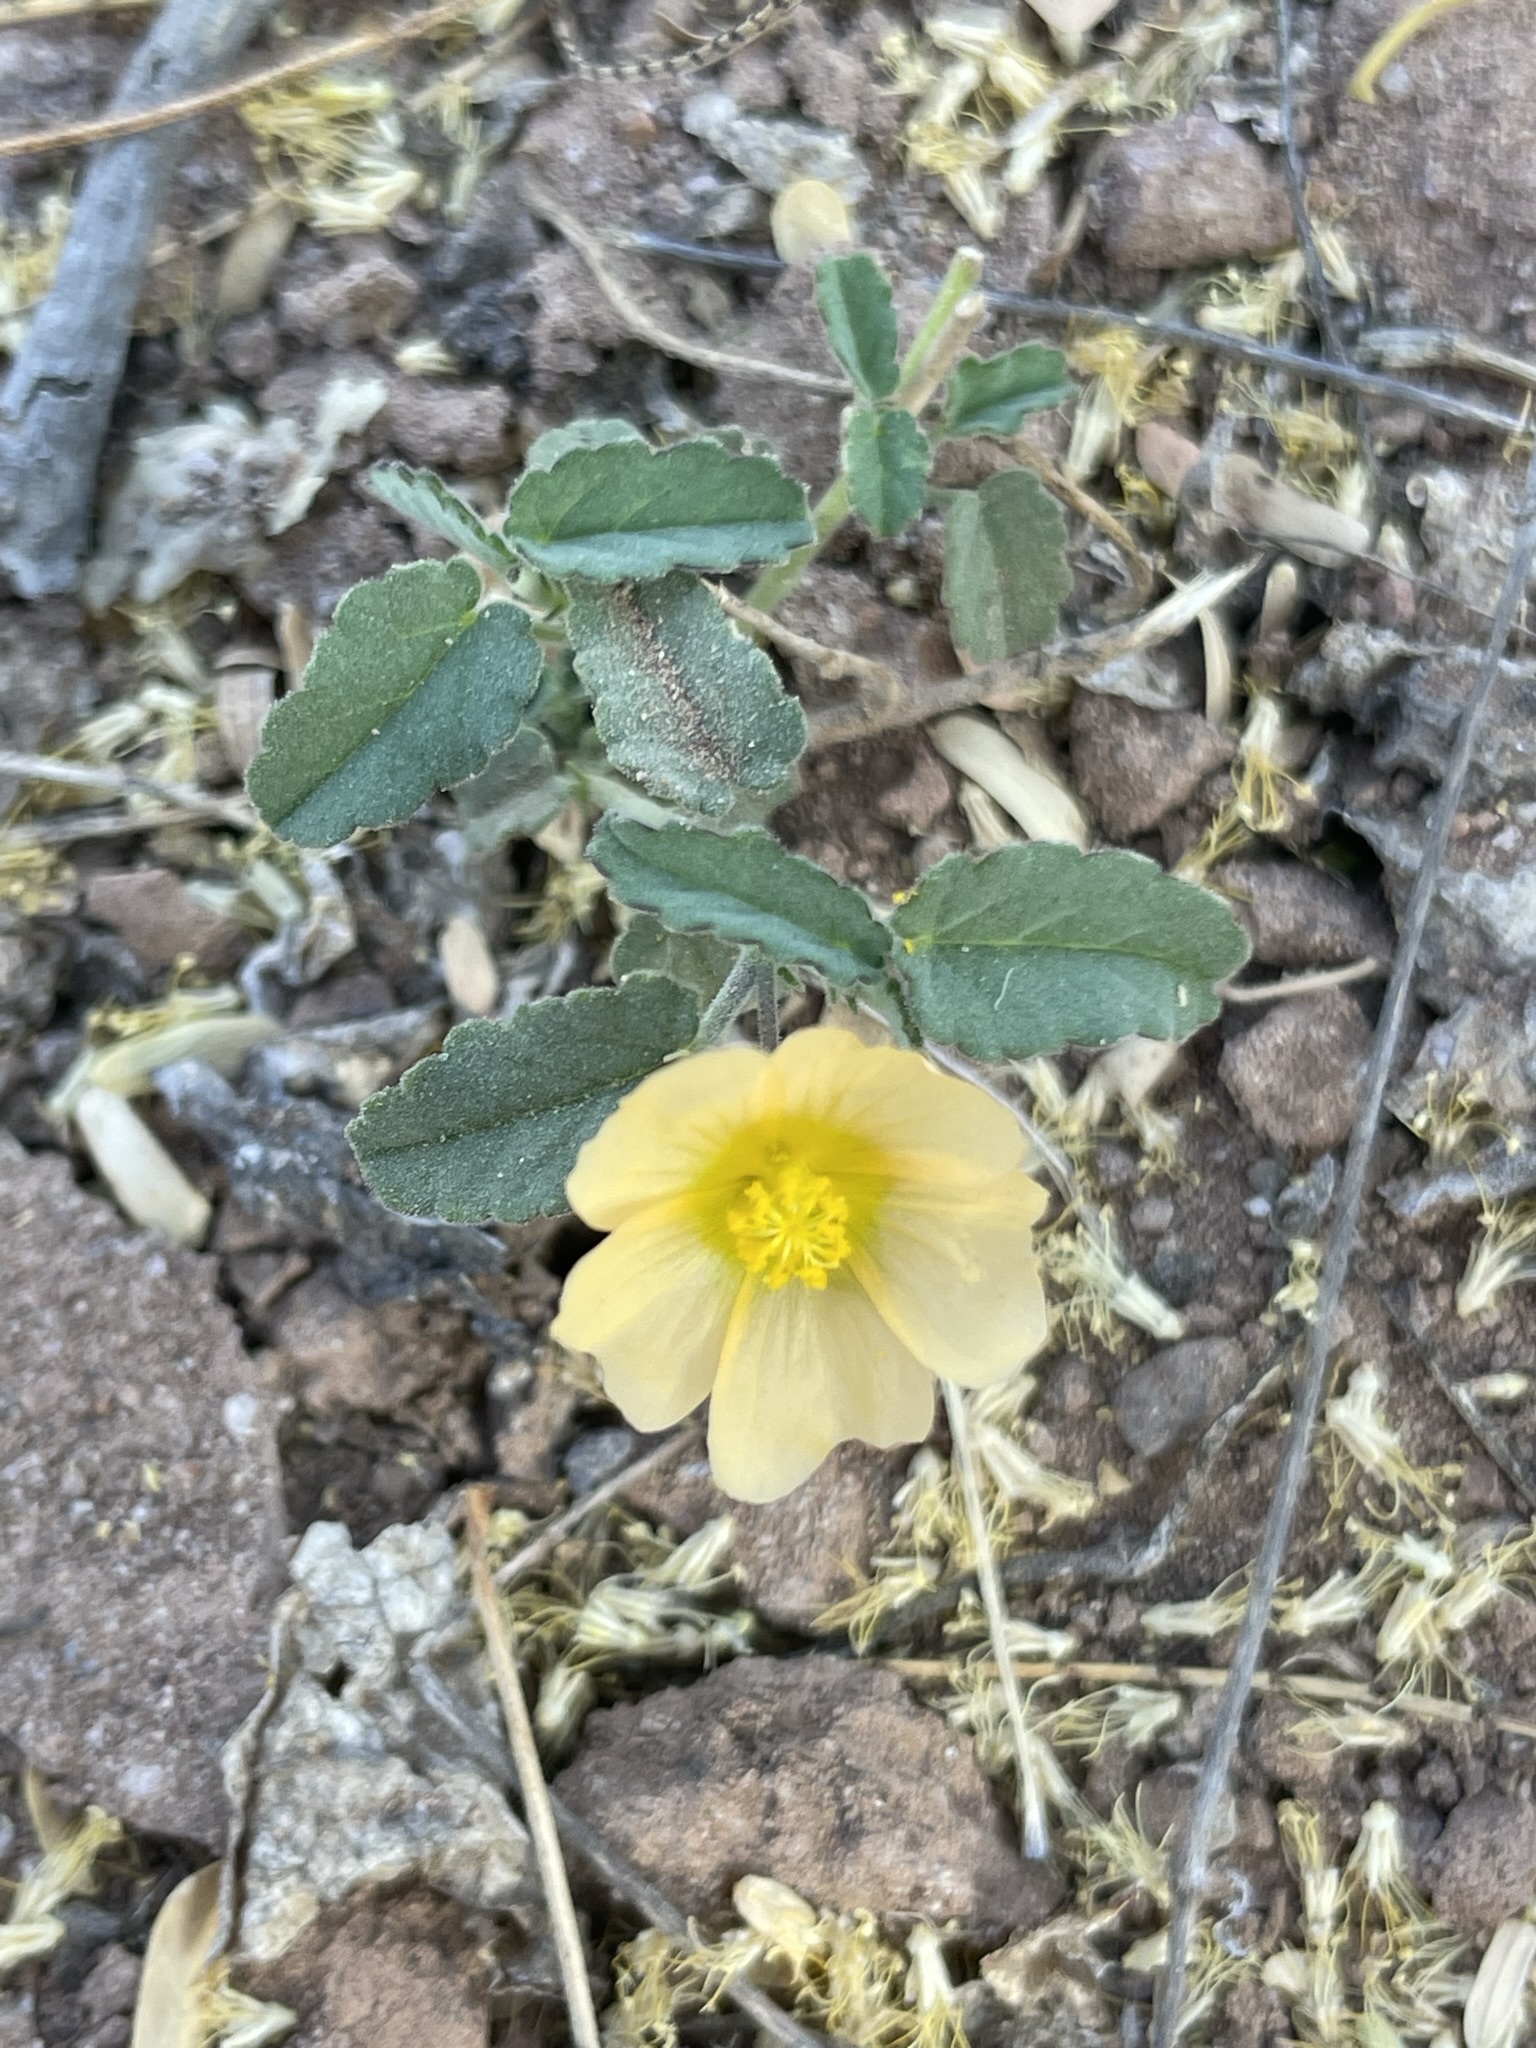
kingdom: Plantae
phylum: Tracheophyta
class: Magnoliopsida
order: Malvales
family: Malvaceae
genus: Sida
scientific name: Sida abutilifolia
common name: Spreading fanpetals
